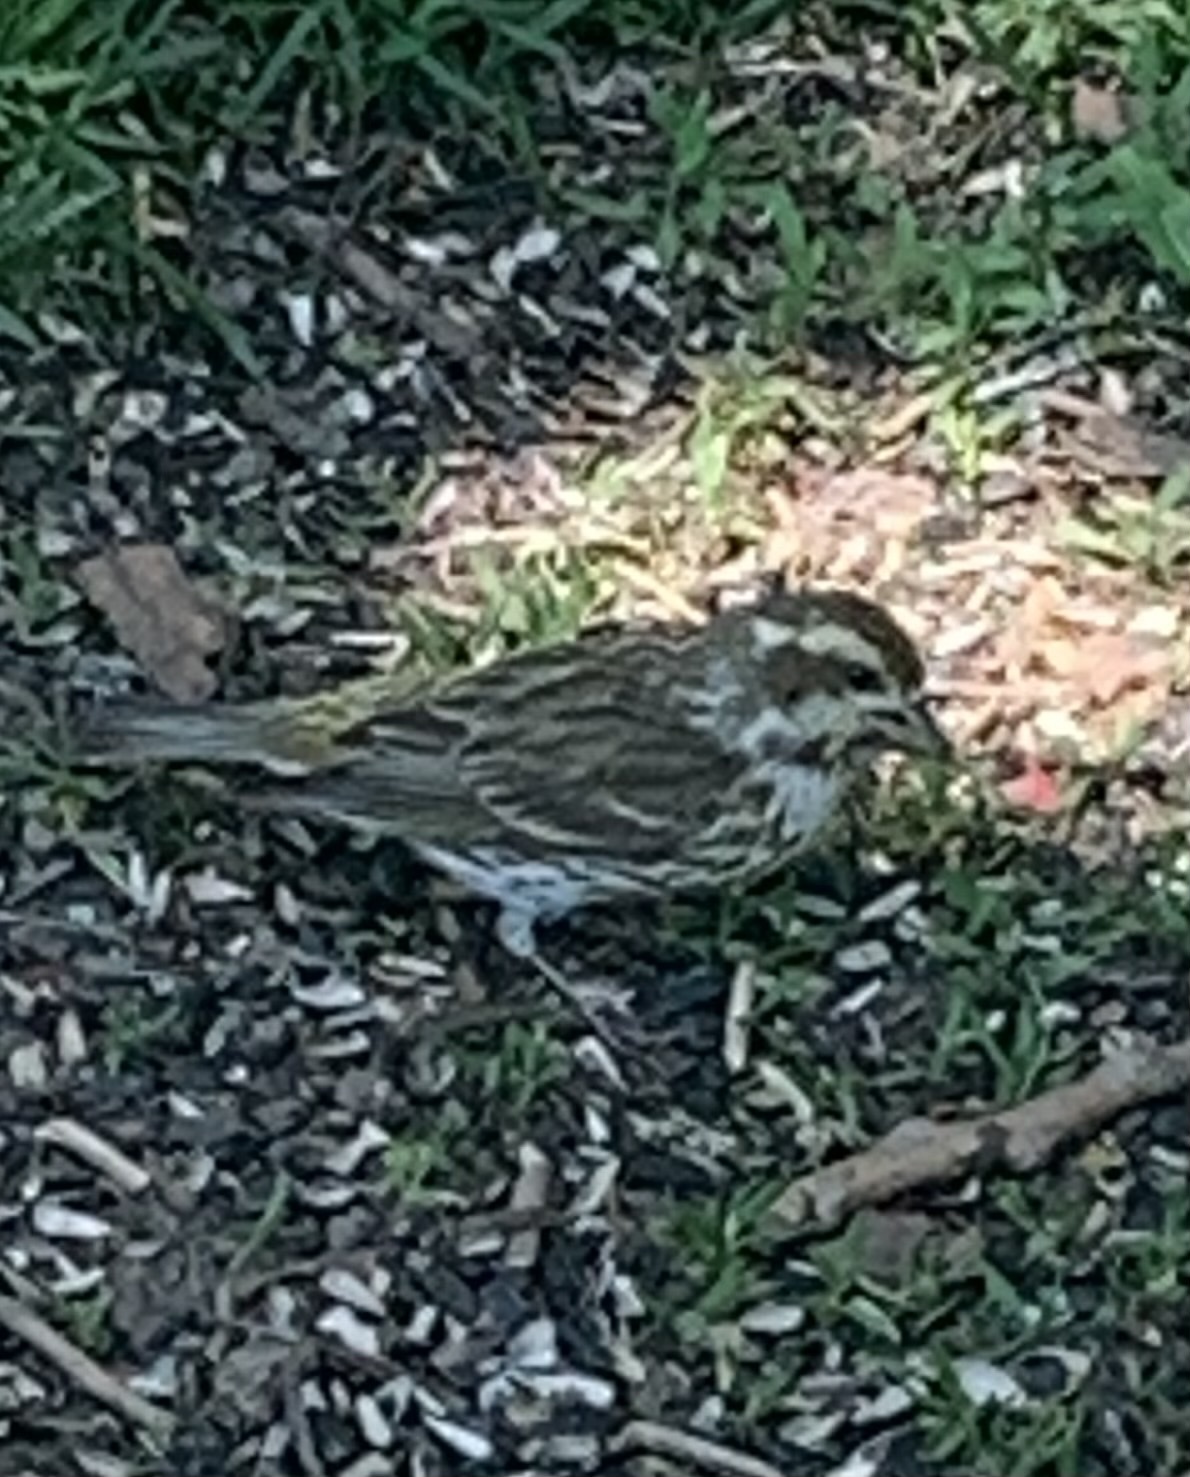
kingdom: Animalia
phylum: Chordata
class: Aves
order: Passeriformes
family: Fringillidae
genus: Haemorhous
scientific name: Haemorhous purpureus
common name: Purple finch
